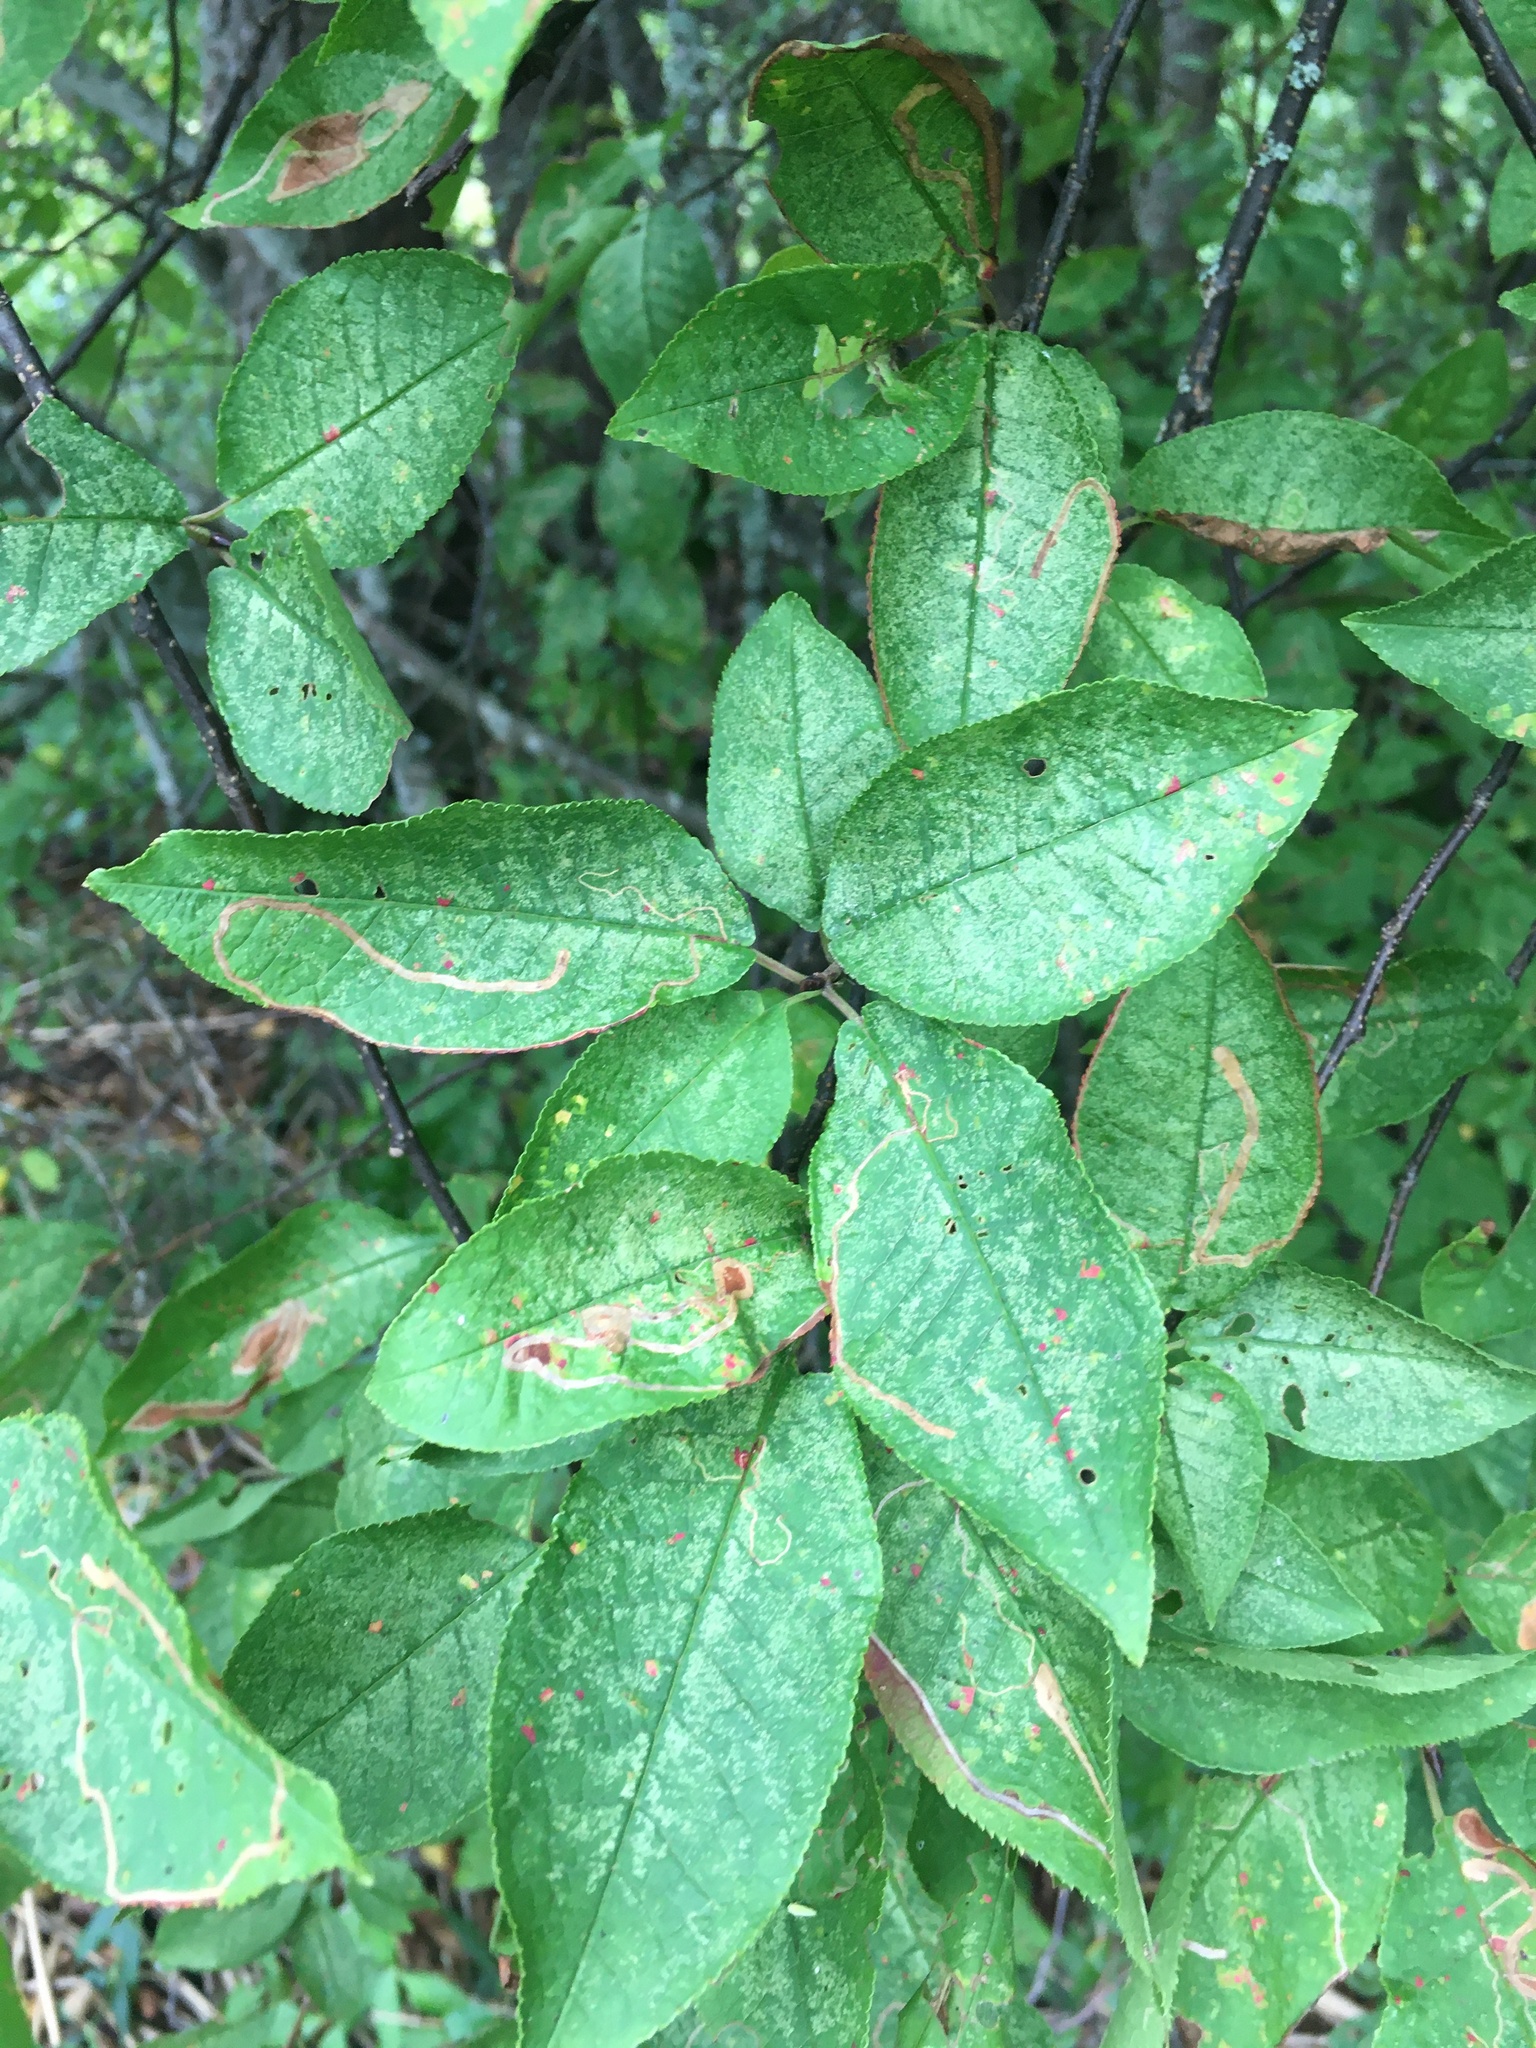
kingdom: Plantae
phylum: Tracheophyta
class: Magnoliopsida
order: Rosales
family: Rosaceae
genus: Prunus
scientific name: Prunus padus
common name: Bird cherry
